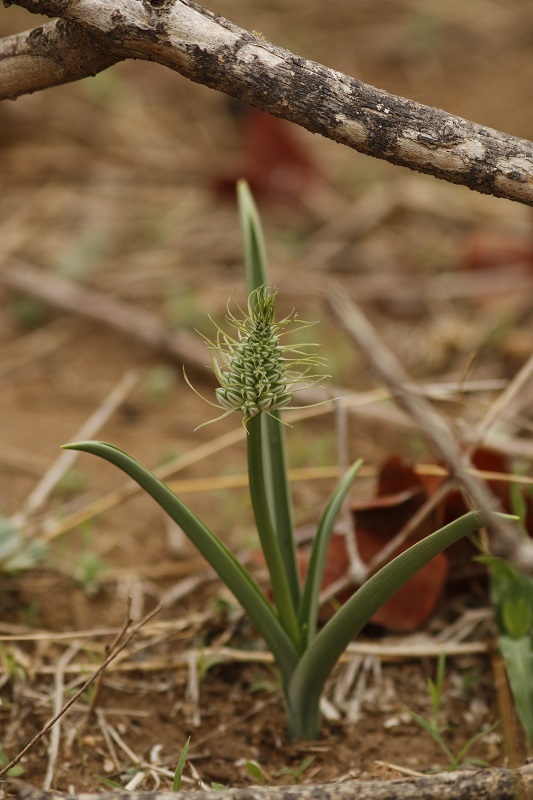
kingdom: Plantae
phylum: Tracheophyta
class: Liliopsida
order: Asparagales
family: Asparagaceae
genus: Albuca
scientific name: Albuca seineri
